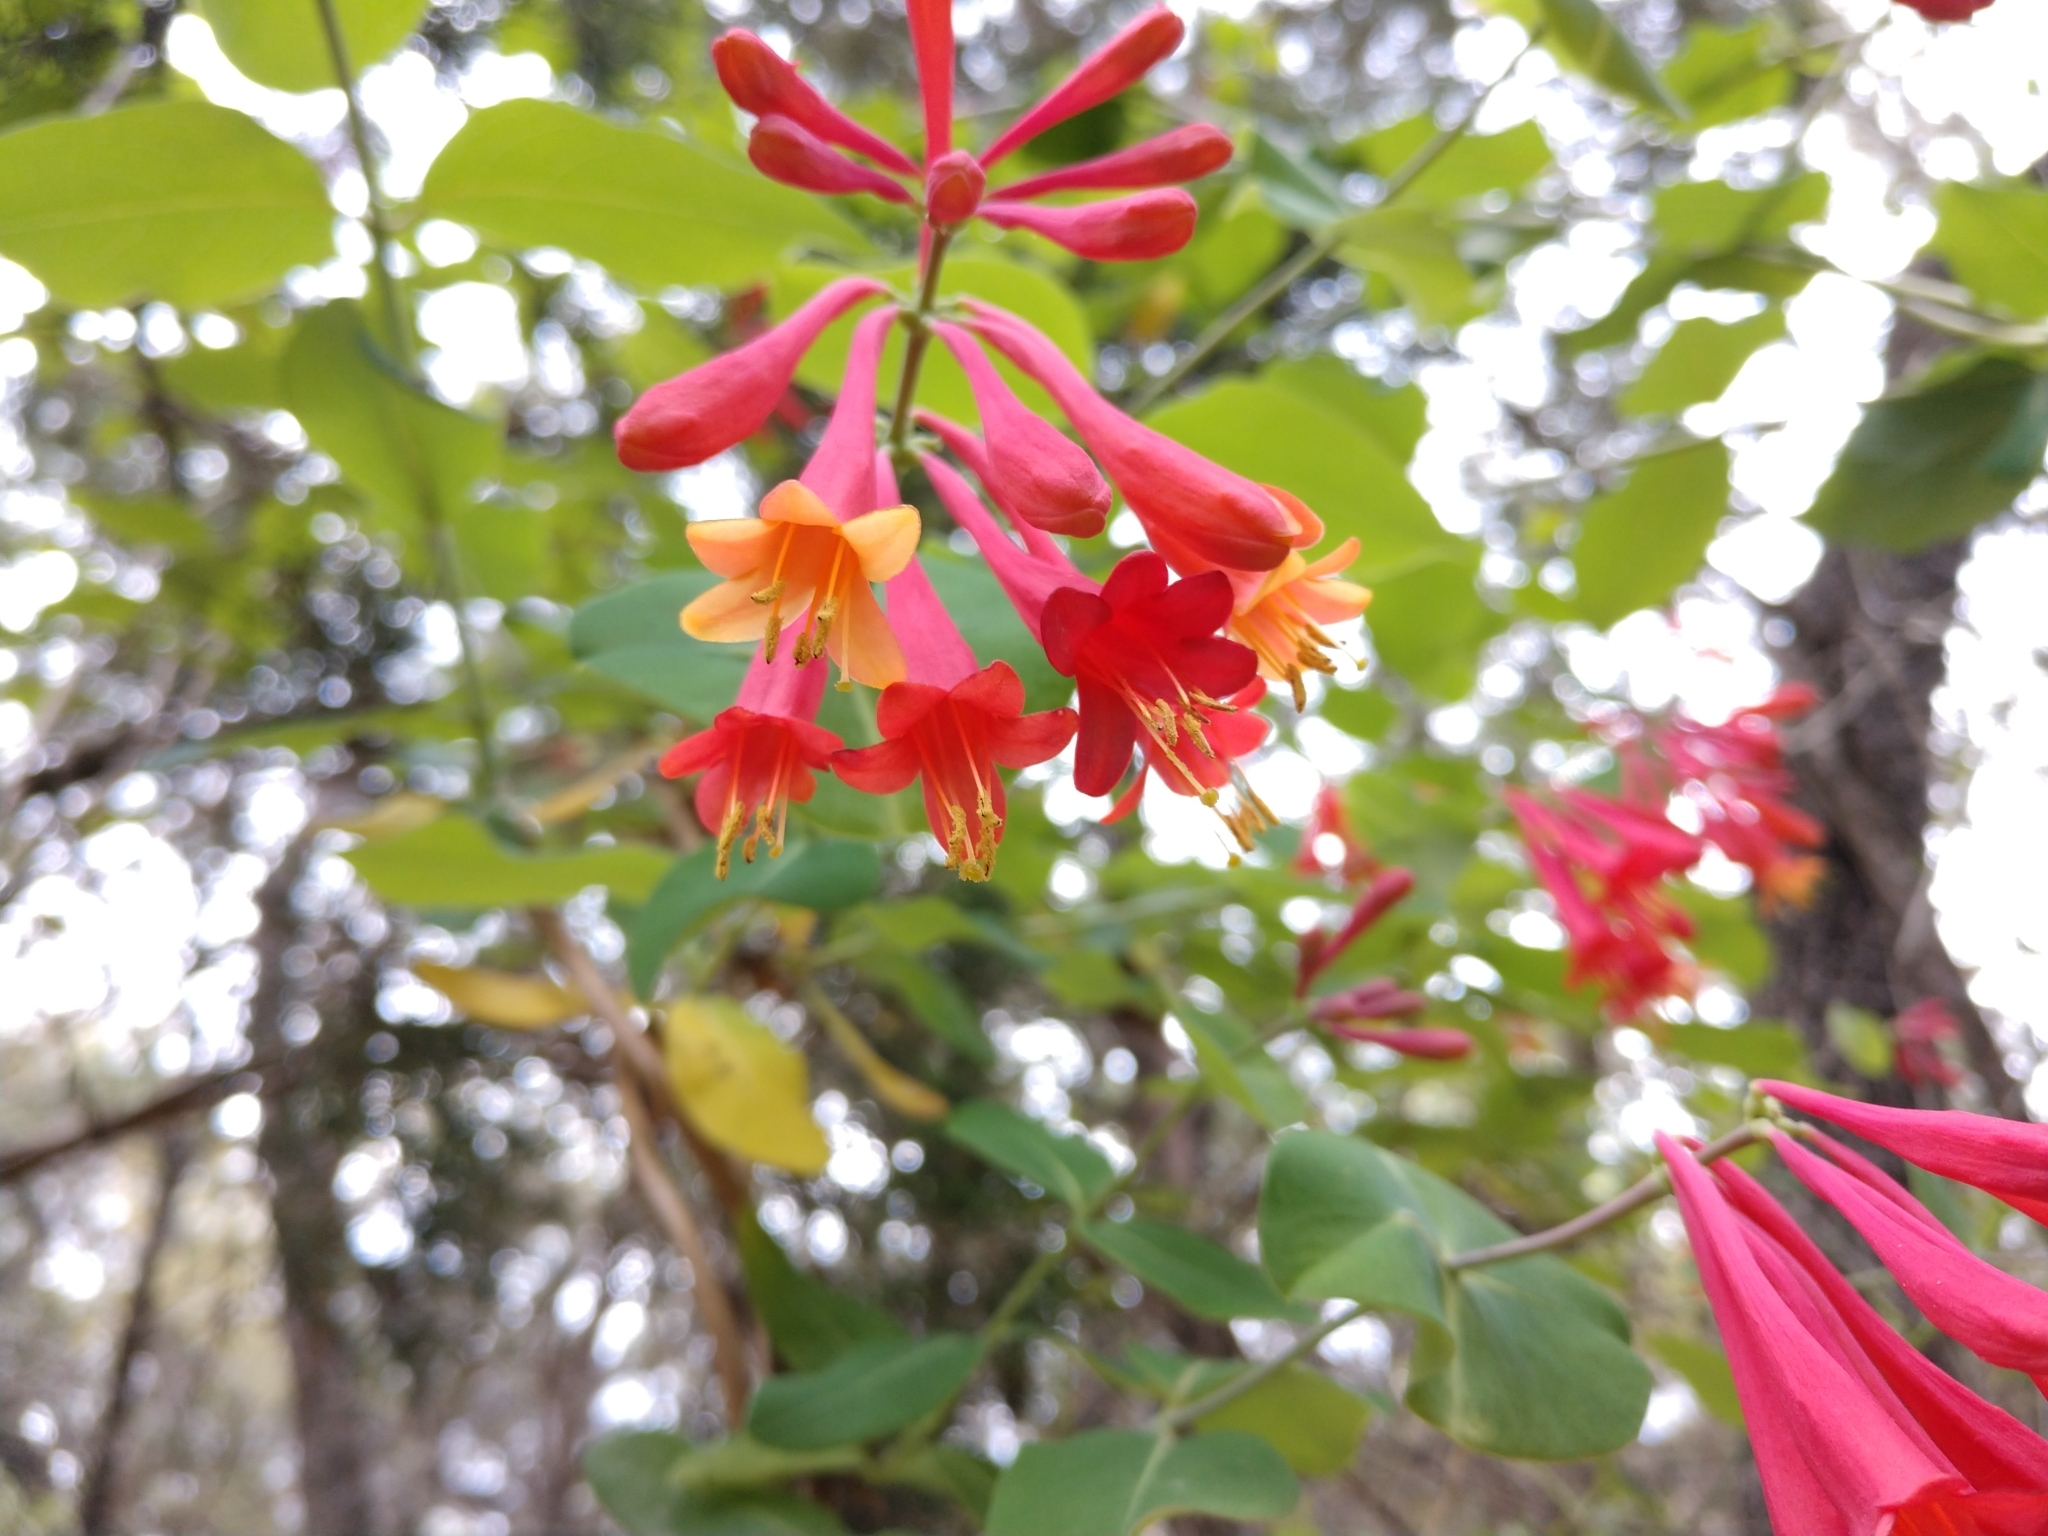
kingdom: Plantae
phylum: Tracheophyta
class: Magnoliopsida
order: Dipsacales
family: Caprifoliaceae
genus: Lonicera
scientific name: Lonicera sempervirens
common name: Coral honeysuckle
